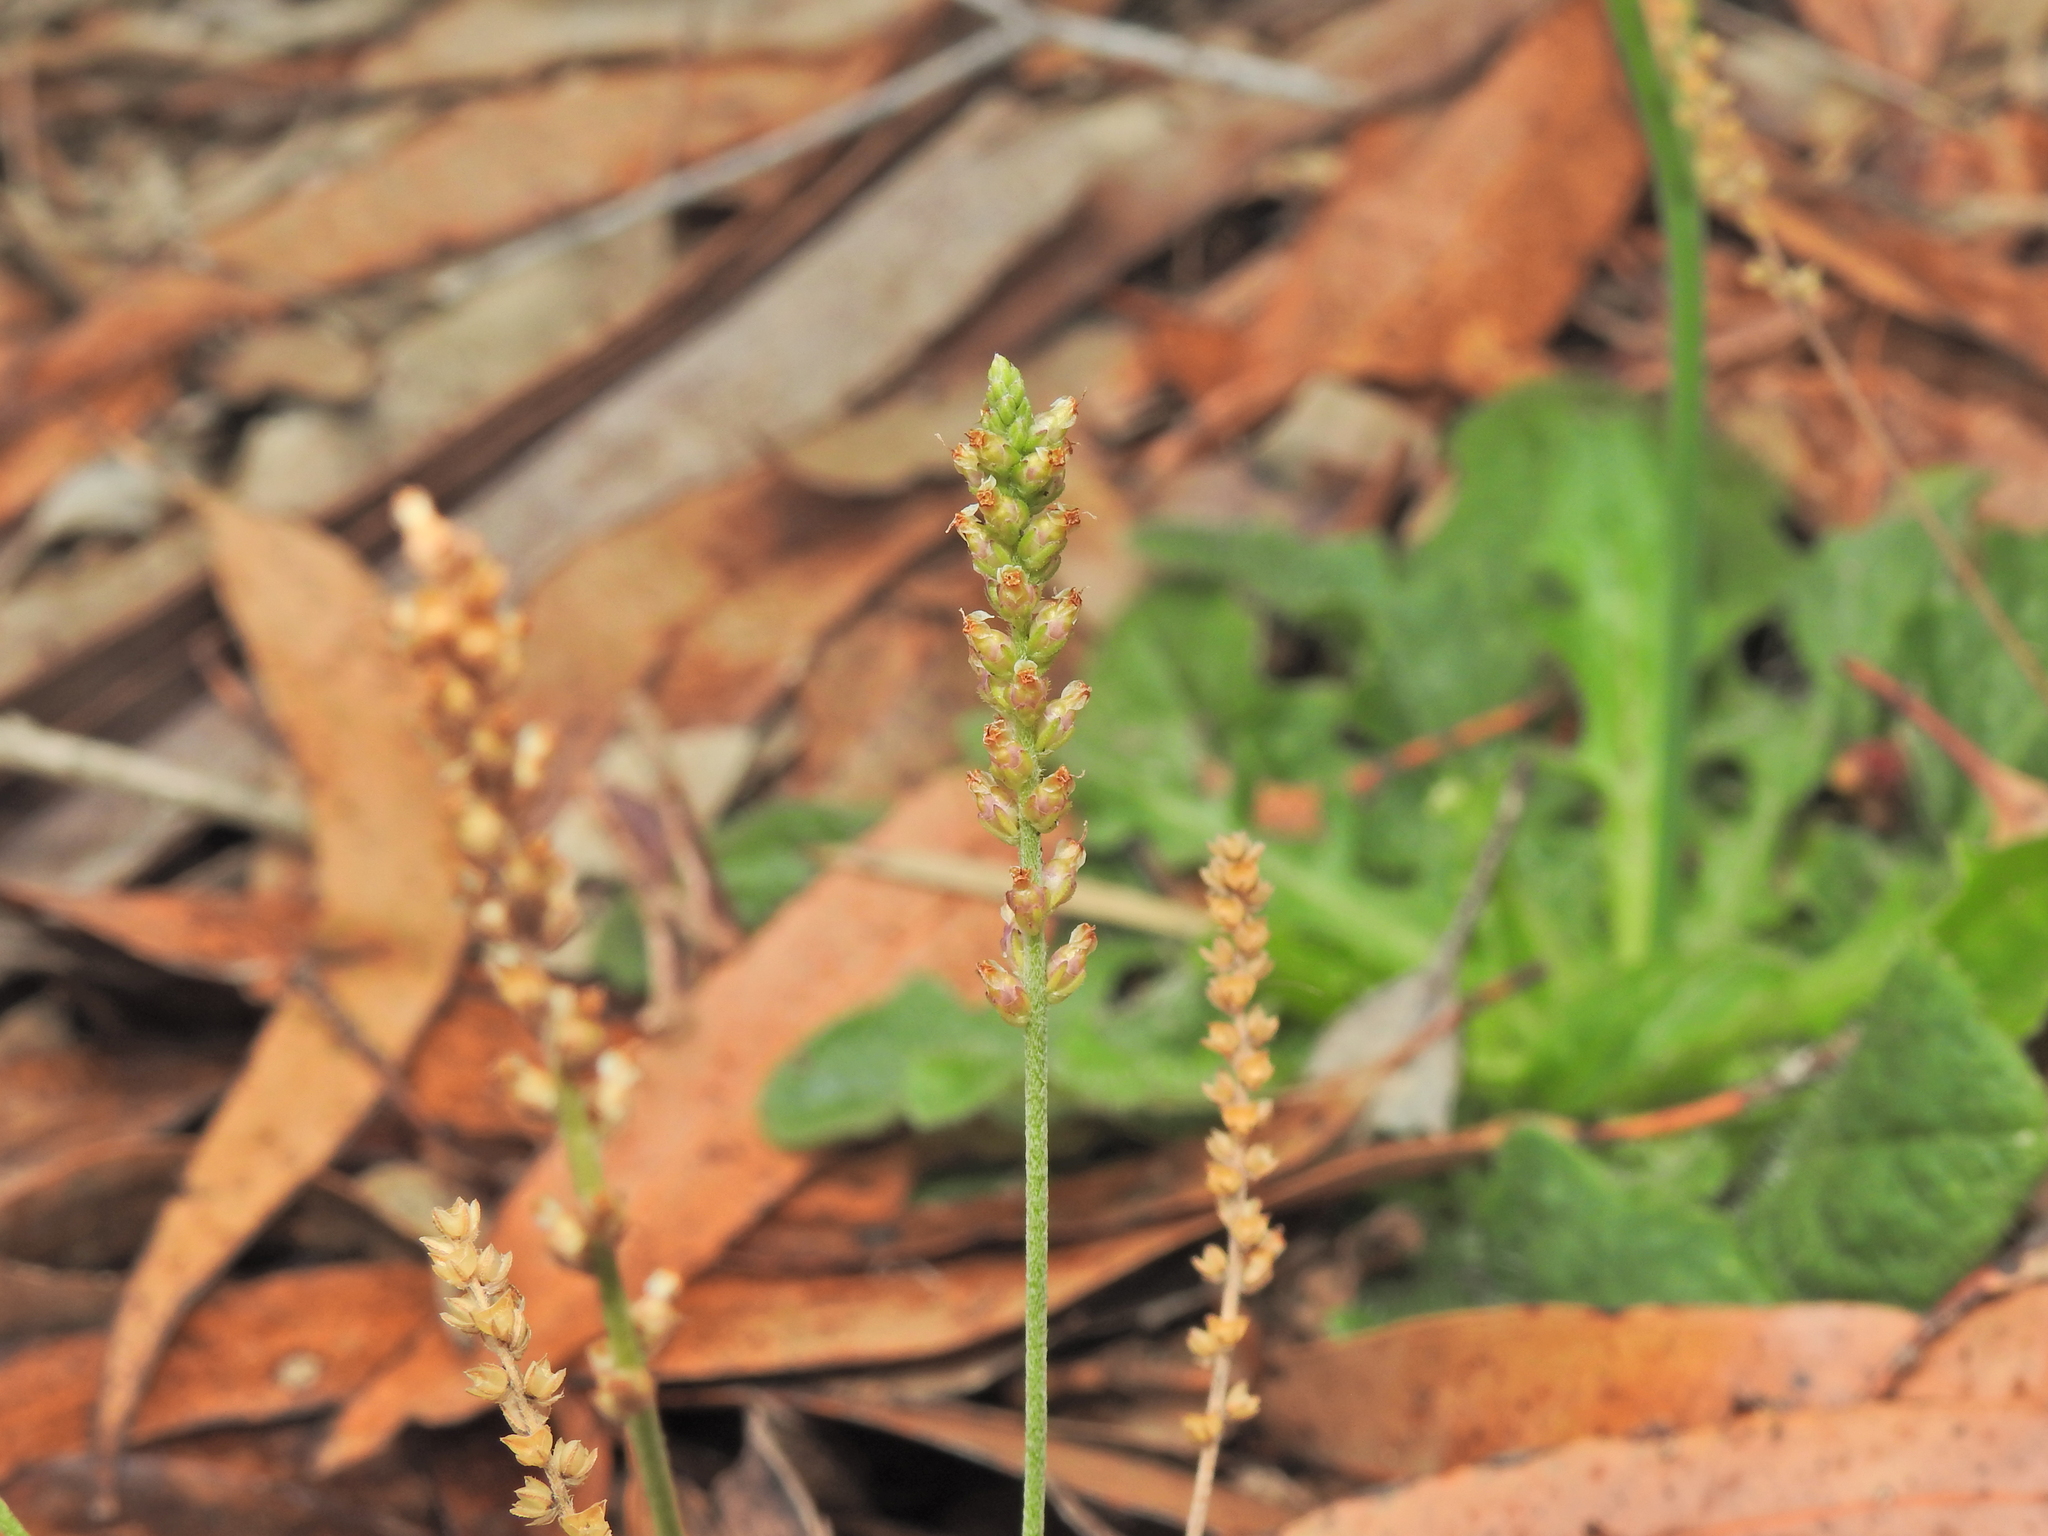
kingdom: Plantae
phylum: Tracheophyta
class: Magnoliopsida
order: Lamiales
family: Plantaginaceae
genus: Plantago
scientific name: Plantago debilis
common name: Weak plantain
